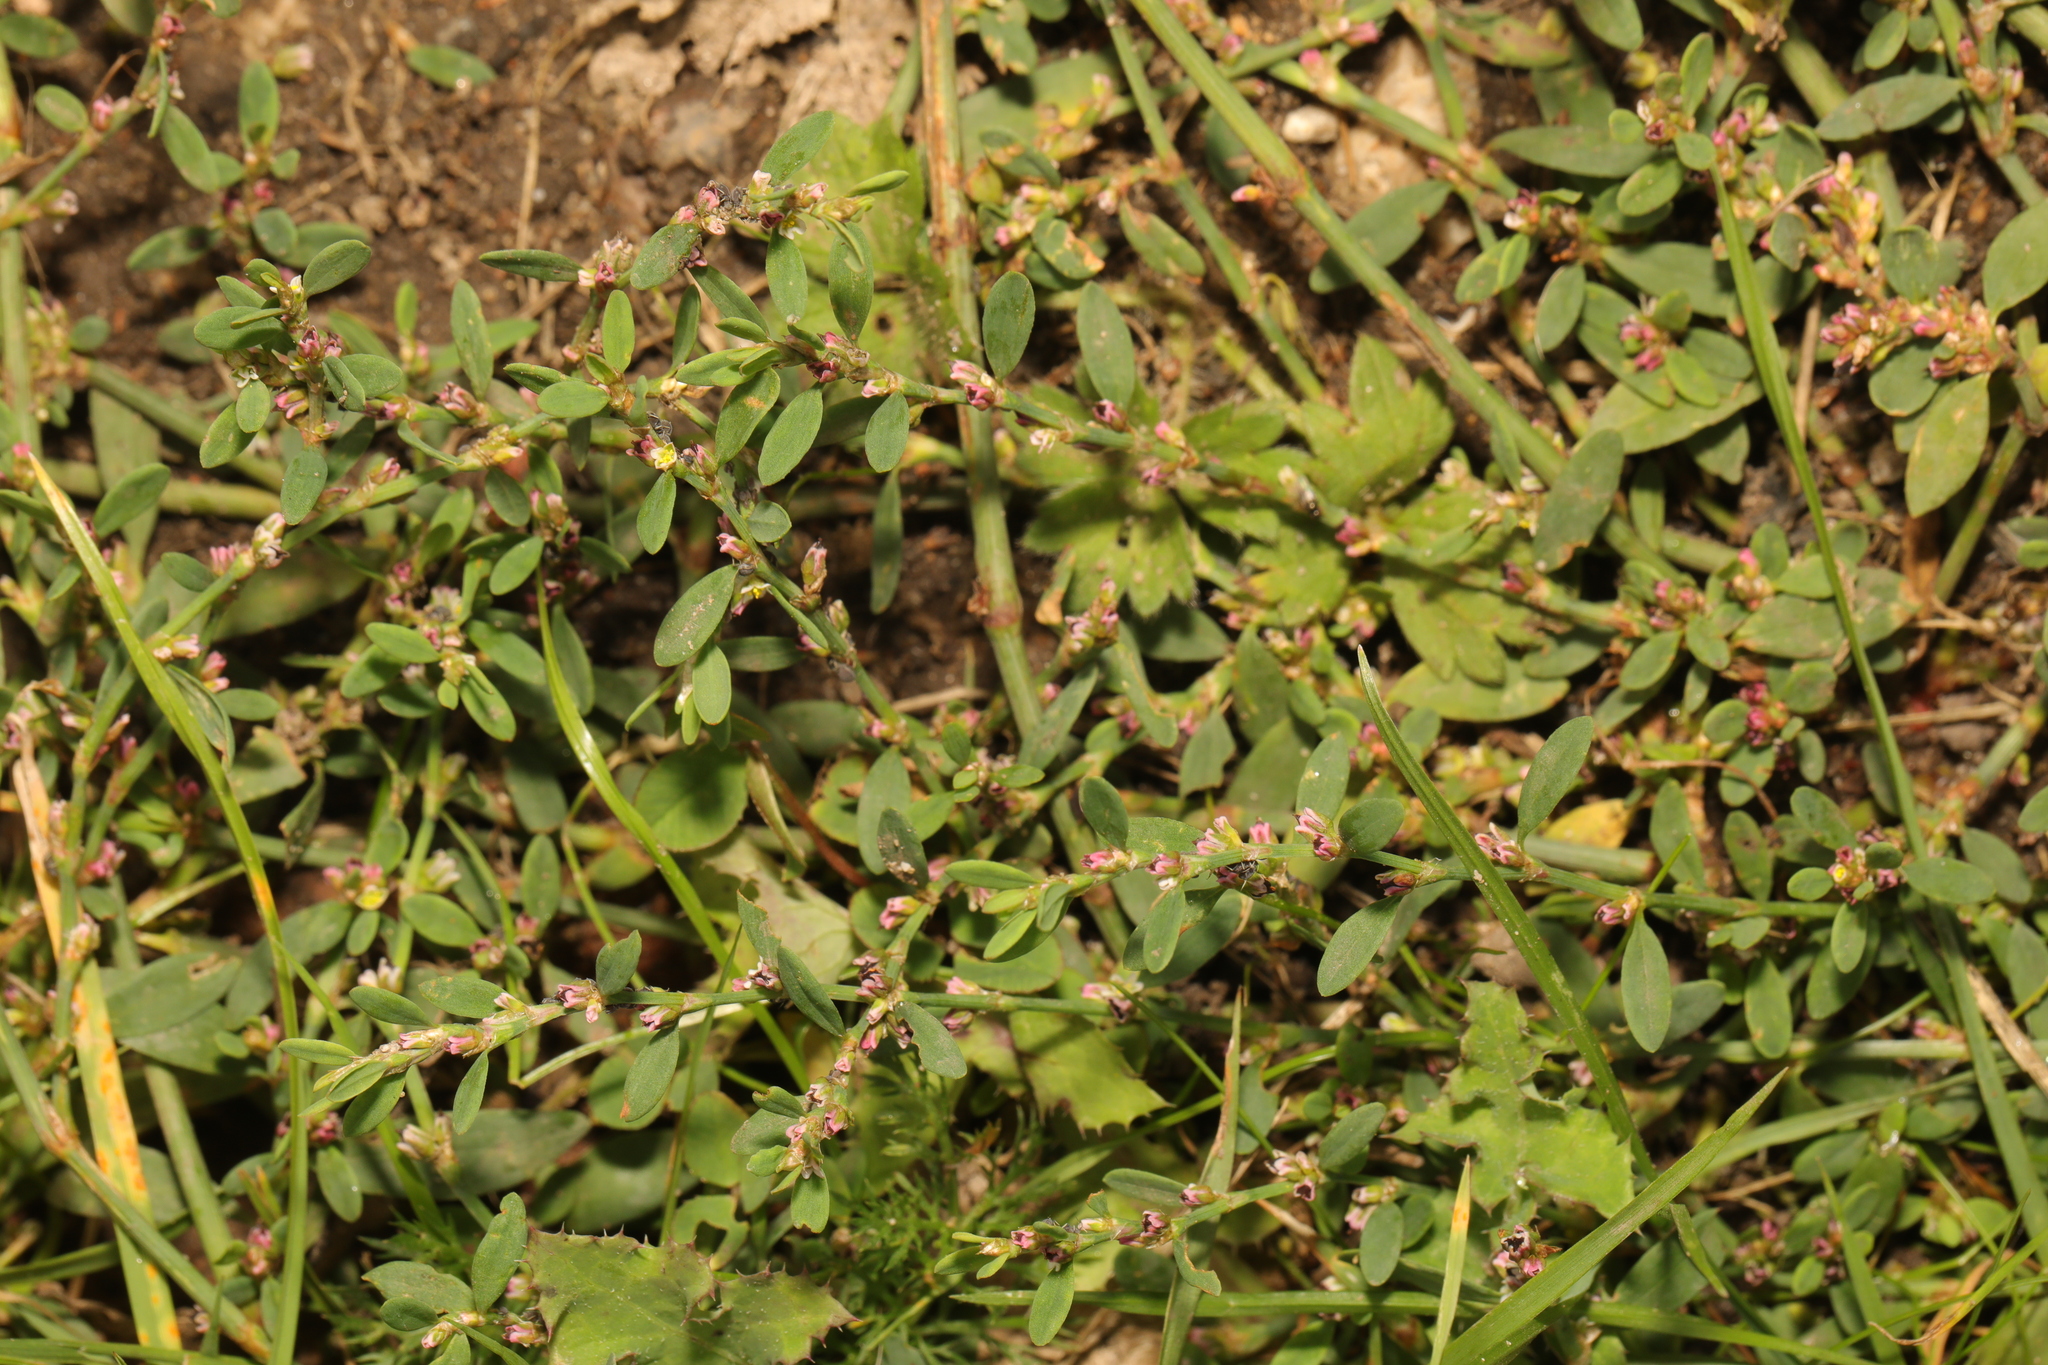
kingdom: Plantae
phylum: Tracheophyta
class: Magnoliopsida
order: Caryophyllales
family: Polygonaceae
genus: Polygonum
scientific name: Polygonum aviculare
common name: Prostrate knotweed
